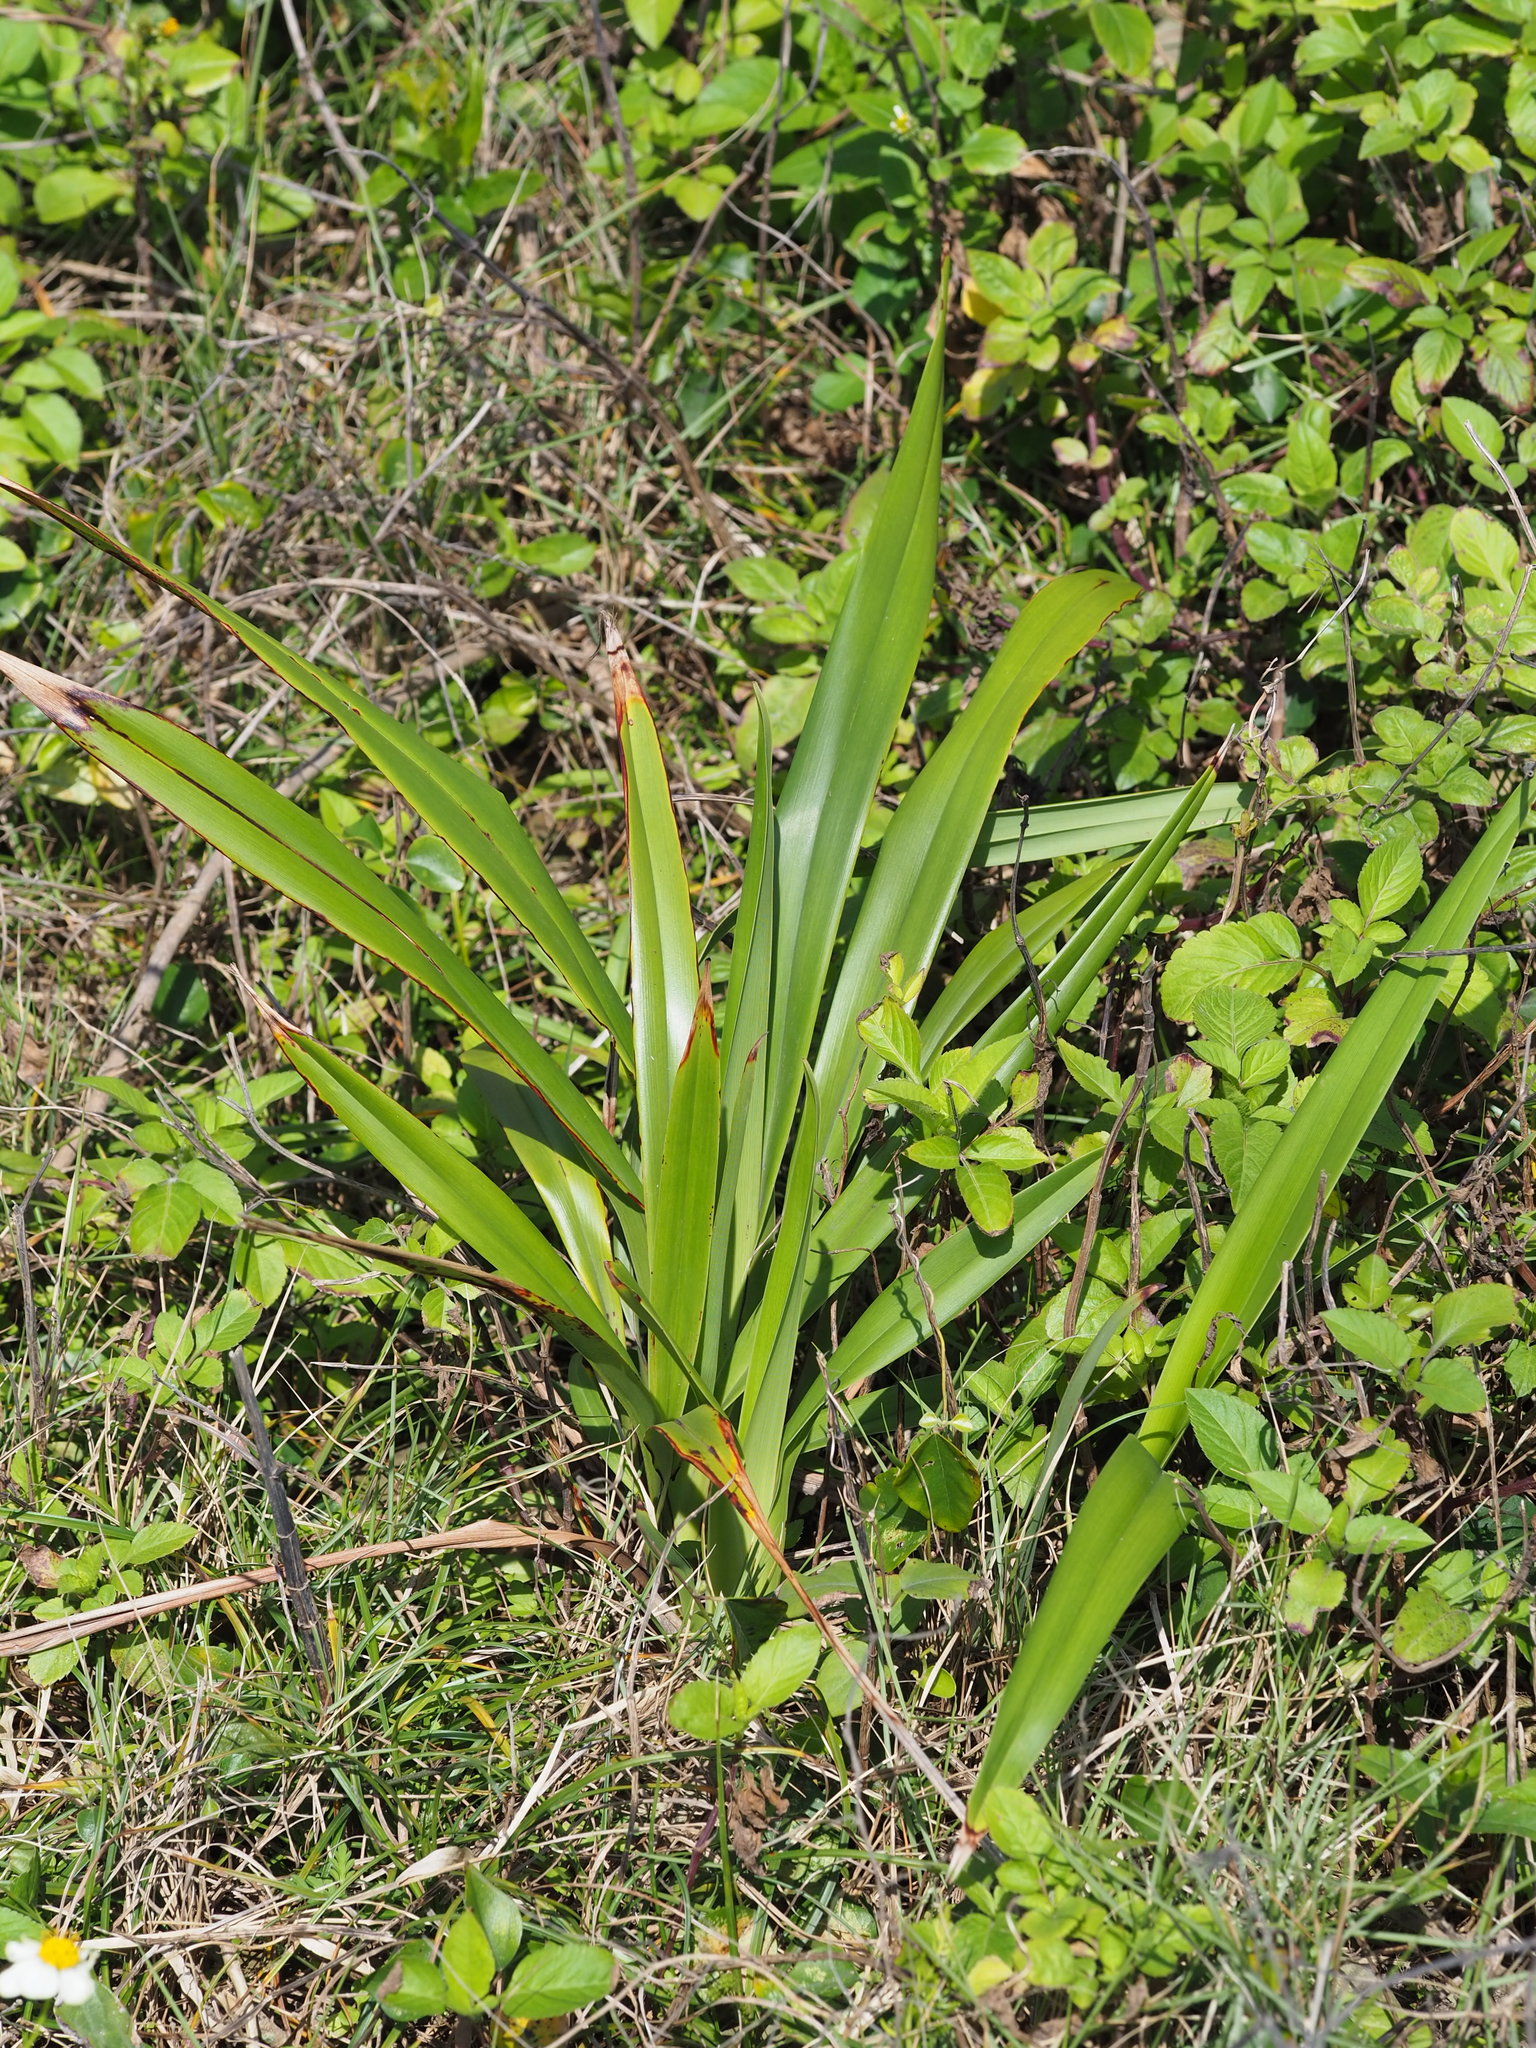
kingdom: Plantae
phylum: Tracheophyta
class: Liliopsida
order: Asparagales
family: Asphodelaceae
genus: Dianella
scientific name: Dianella ensifolia
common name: New zealand lilyplant
